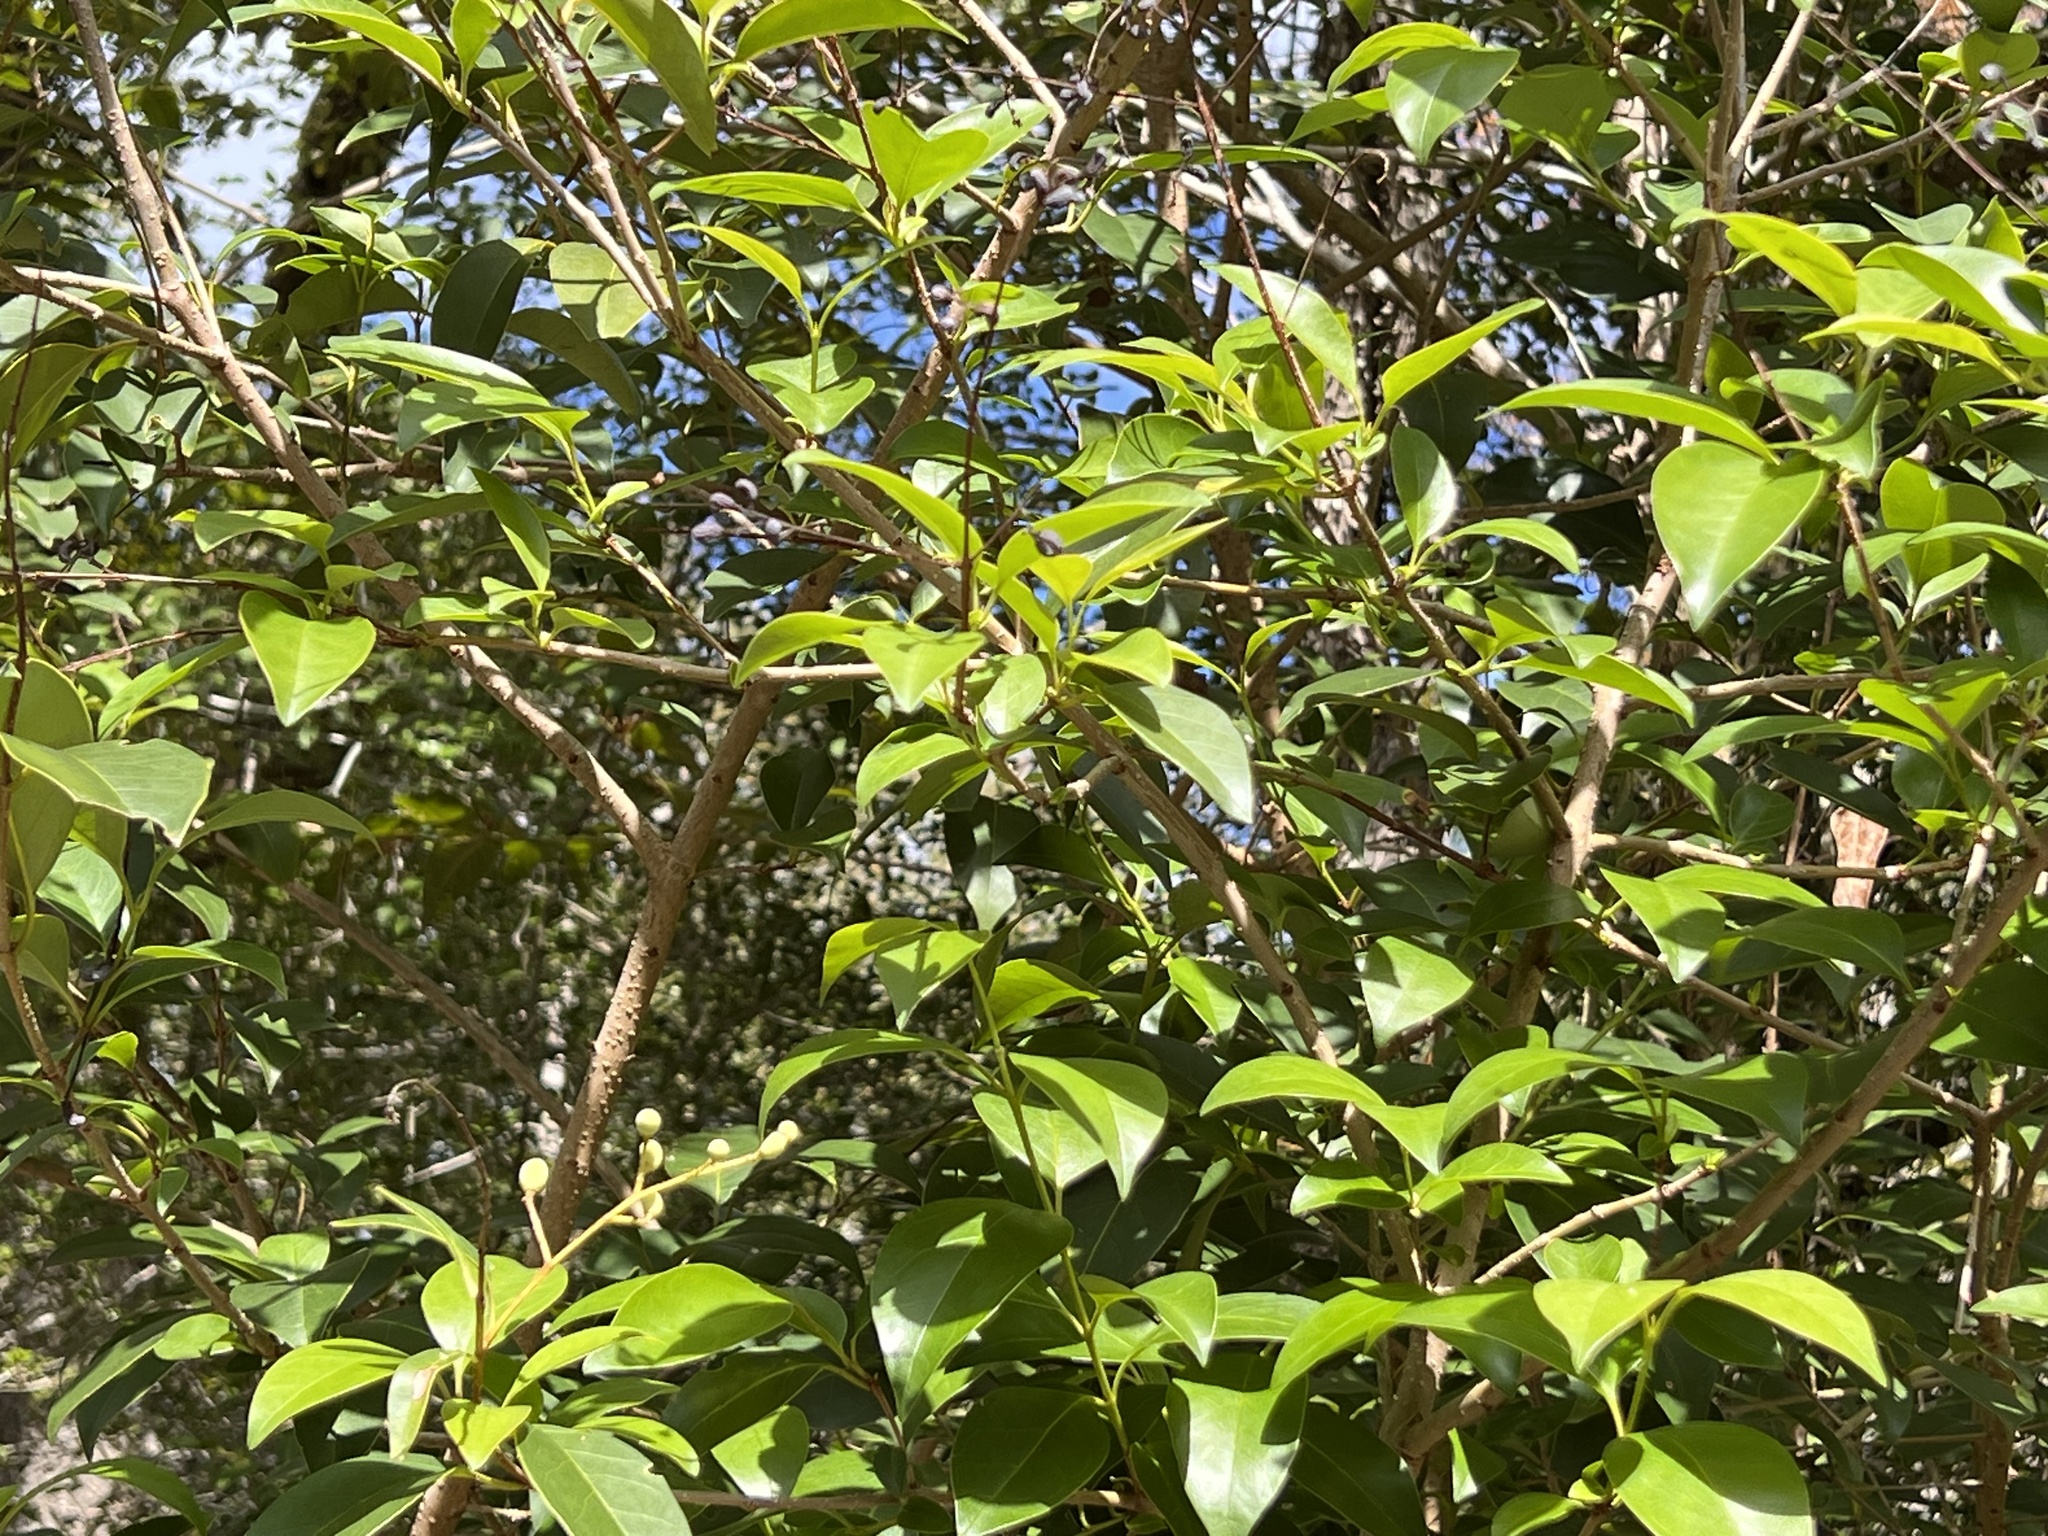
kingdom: Plantae
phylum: Tracheophyta
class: Magnoliopsida
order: Lamiales
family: Oleaceae
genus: Ligustrum
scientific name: Ligustrum lucidum
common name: Glossy privet
